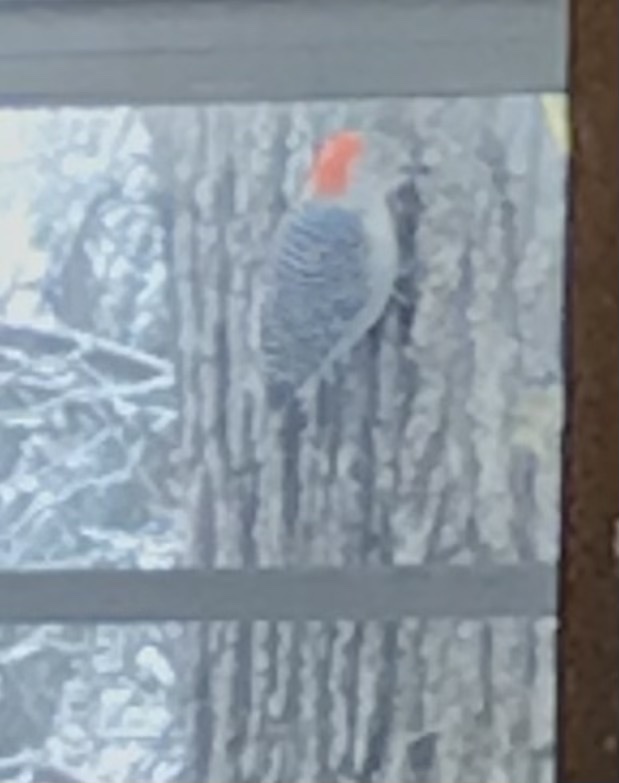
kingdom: Animalia
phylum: Chordata
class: Aves
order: Piciformes
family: Picidae
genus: Melanerpes
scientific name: Melanerpes carolinus
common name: Red-bellied woodpecker
